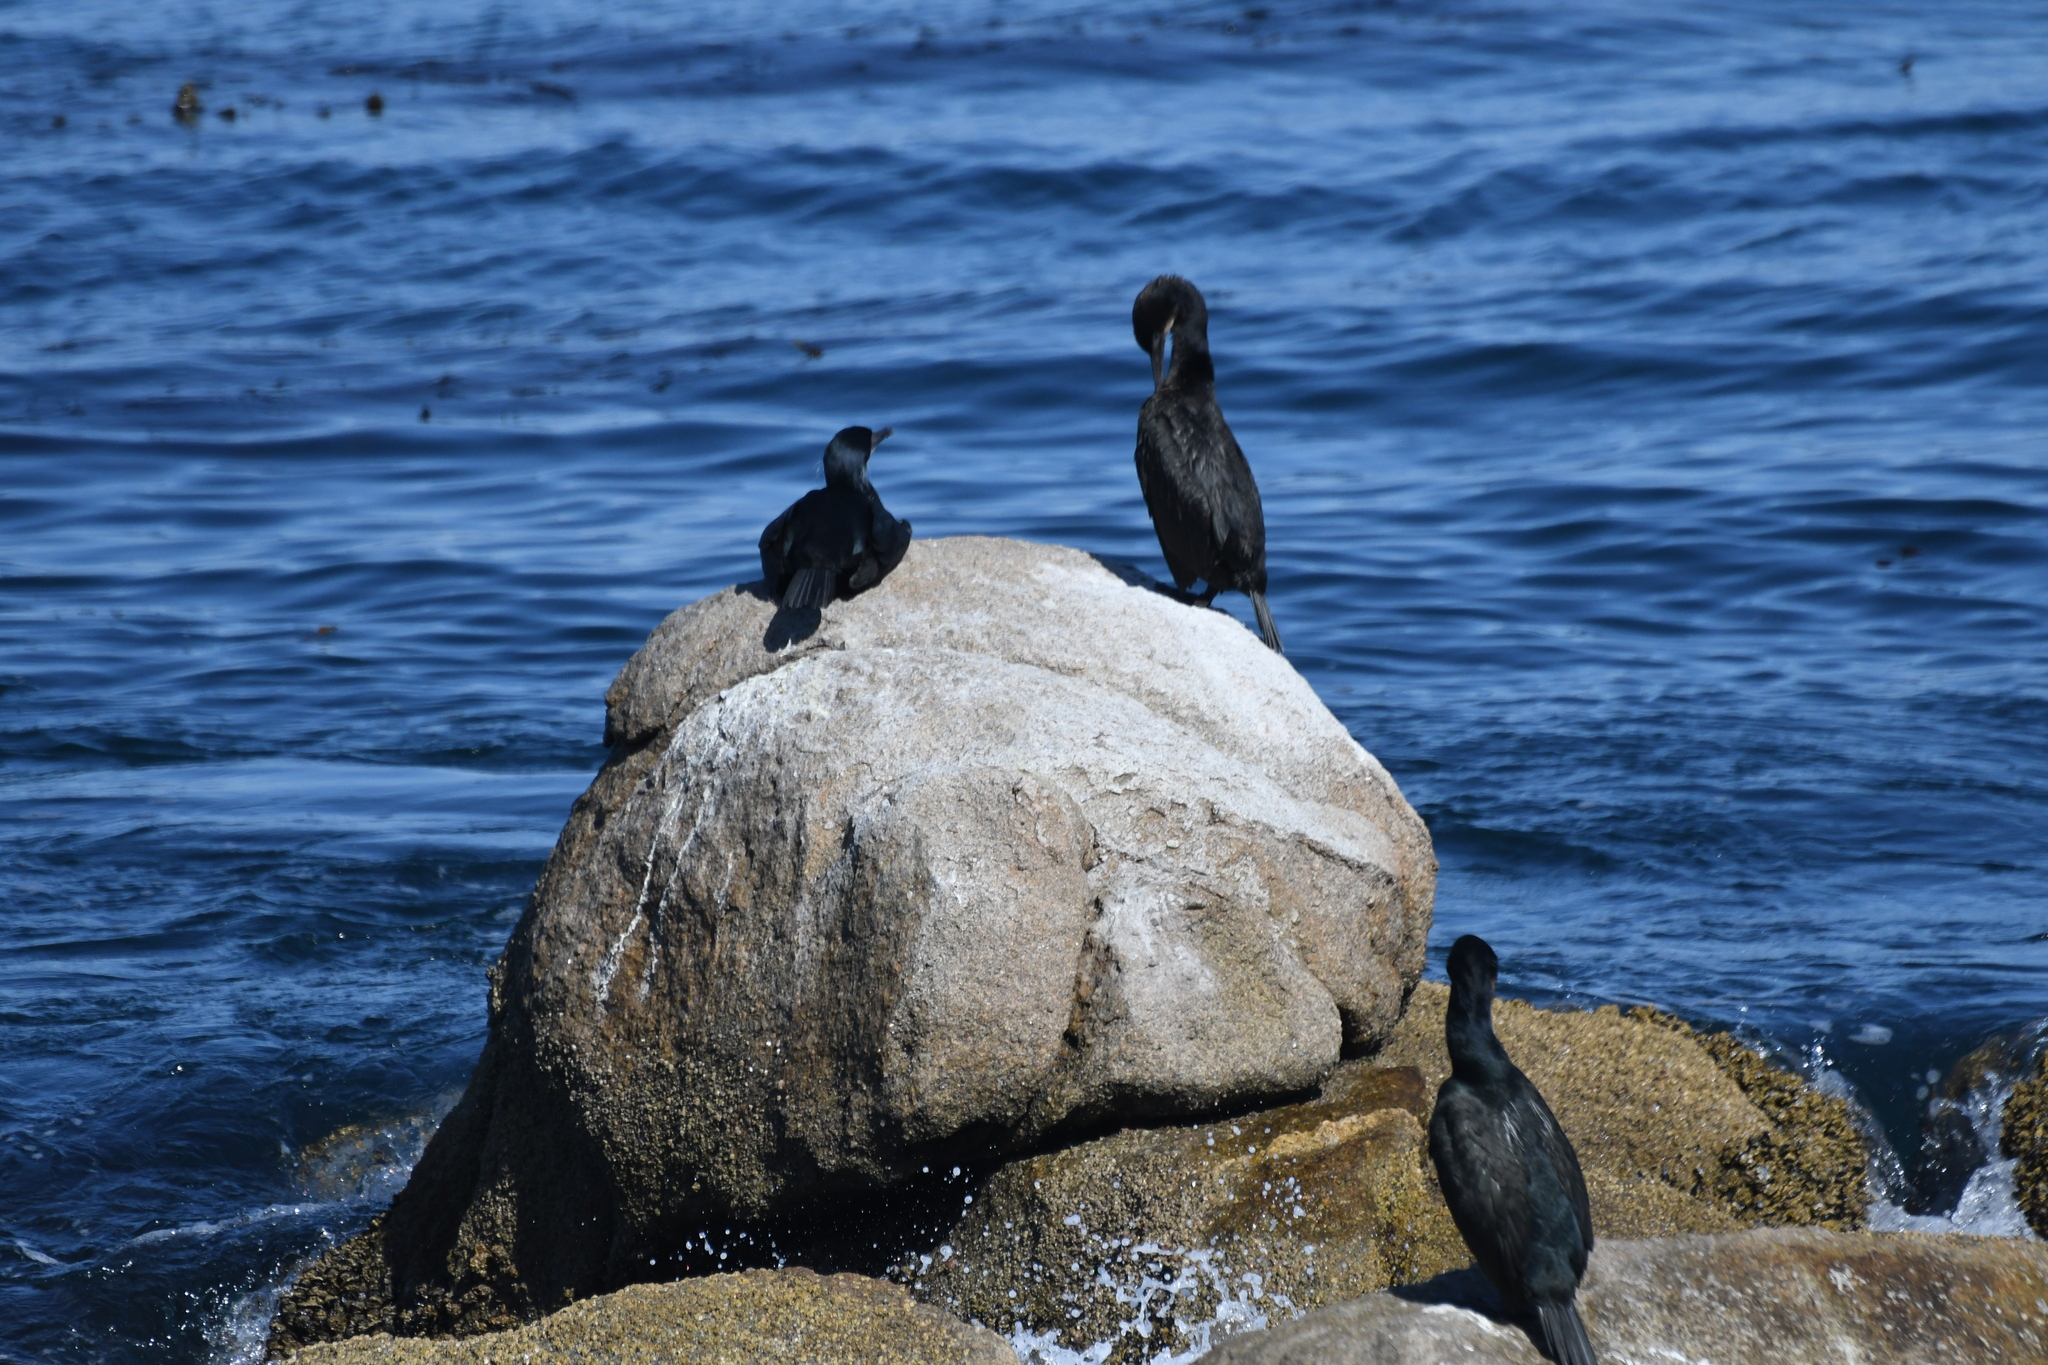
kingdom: Animalia
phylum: Chordata
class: Aves
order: Suliformes
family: Phalacrocoracidae
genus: Urile
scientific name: Urile penicillatus
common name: Brandt's cormorant
